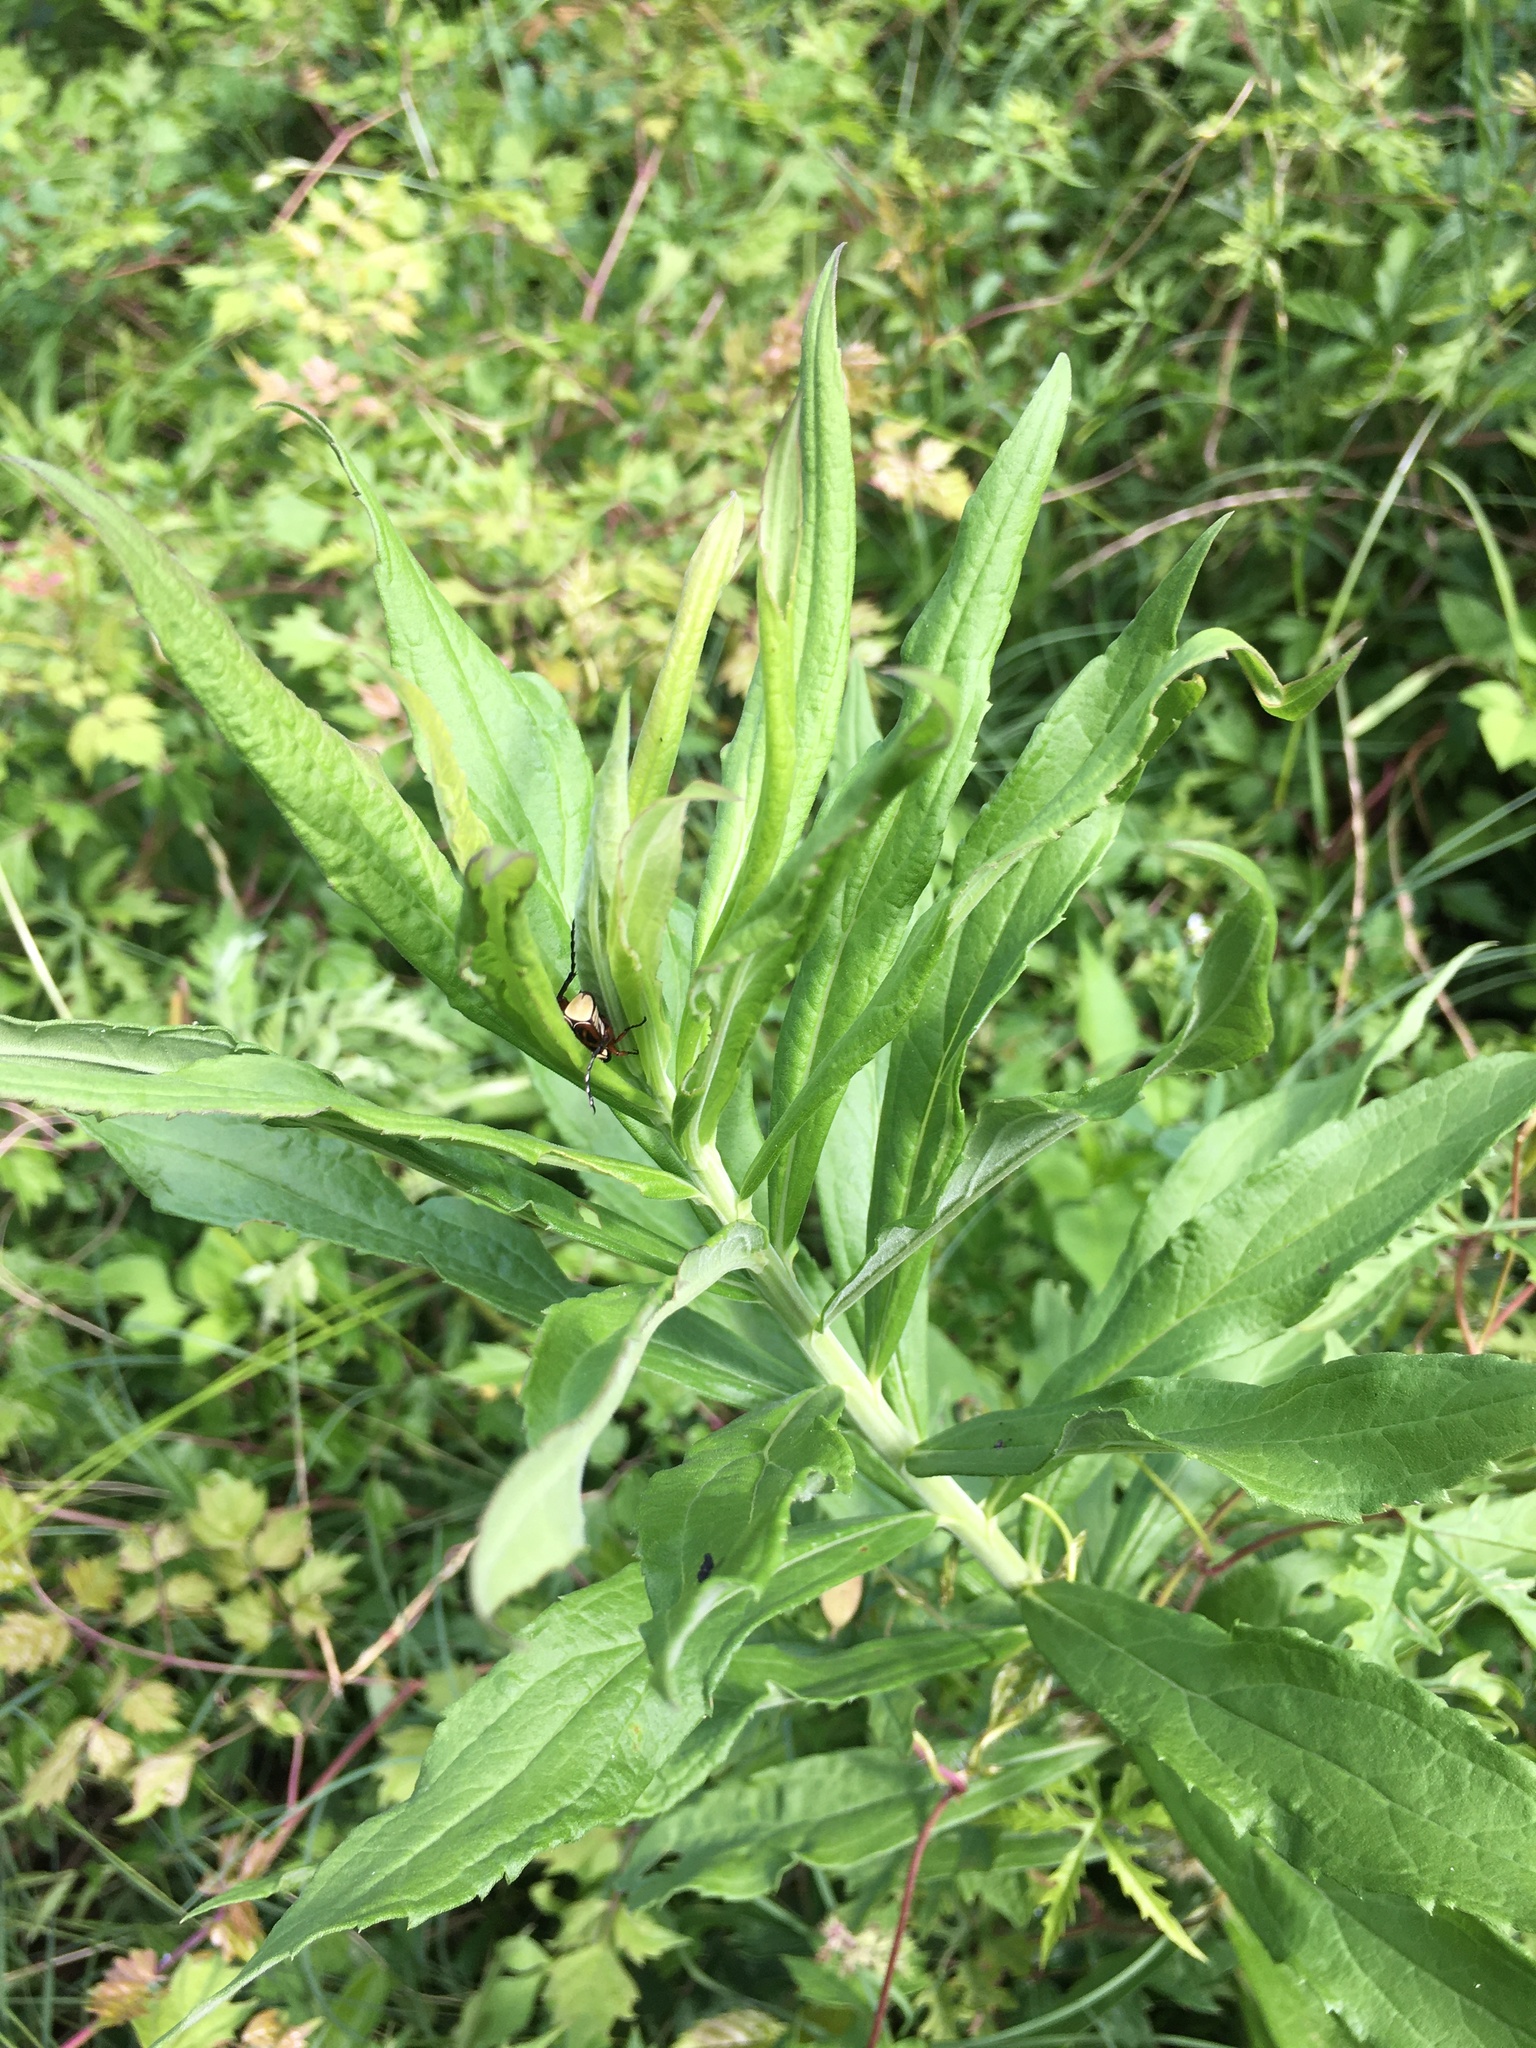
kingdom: Animalia
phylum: Arthropoda
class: Insecta
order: Coleoptera
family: Scarabaeidae
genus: Trigonopeltastes
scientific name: Trigonopeltastes delta
